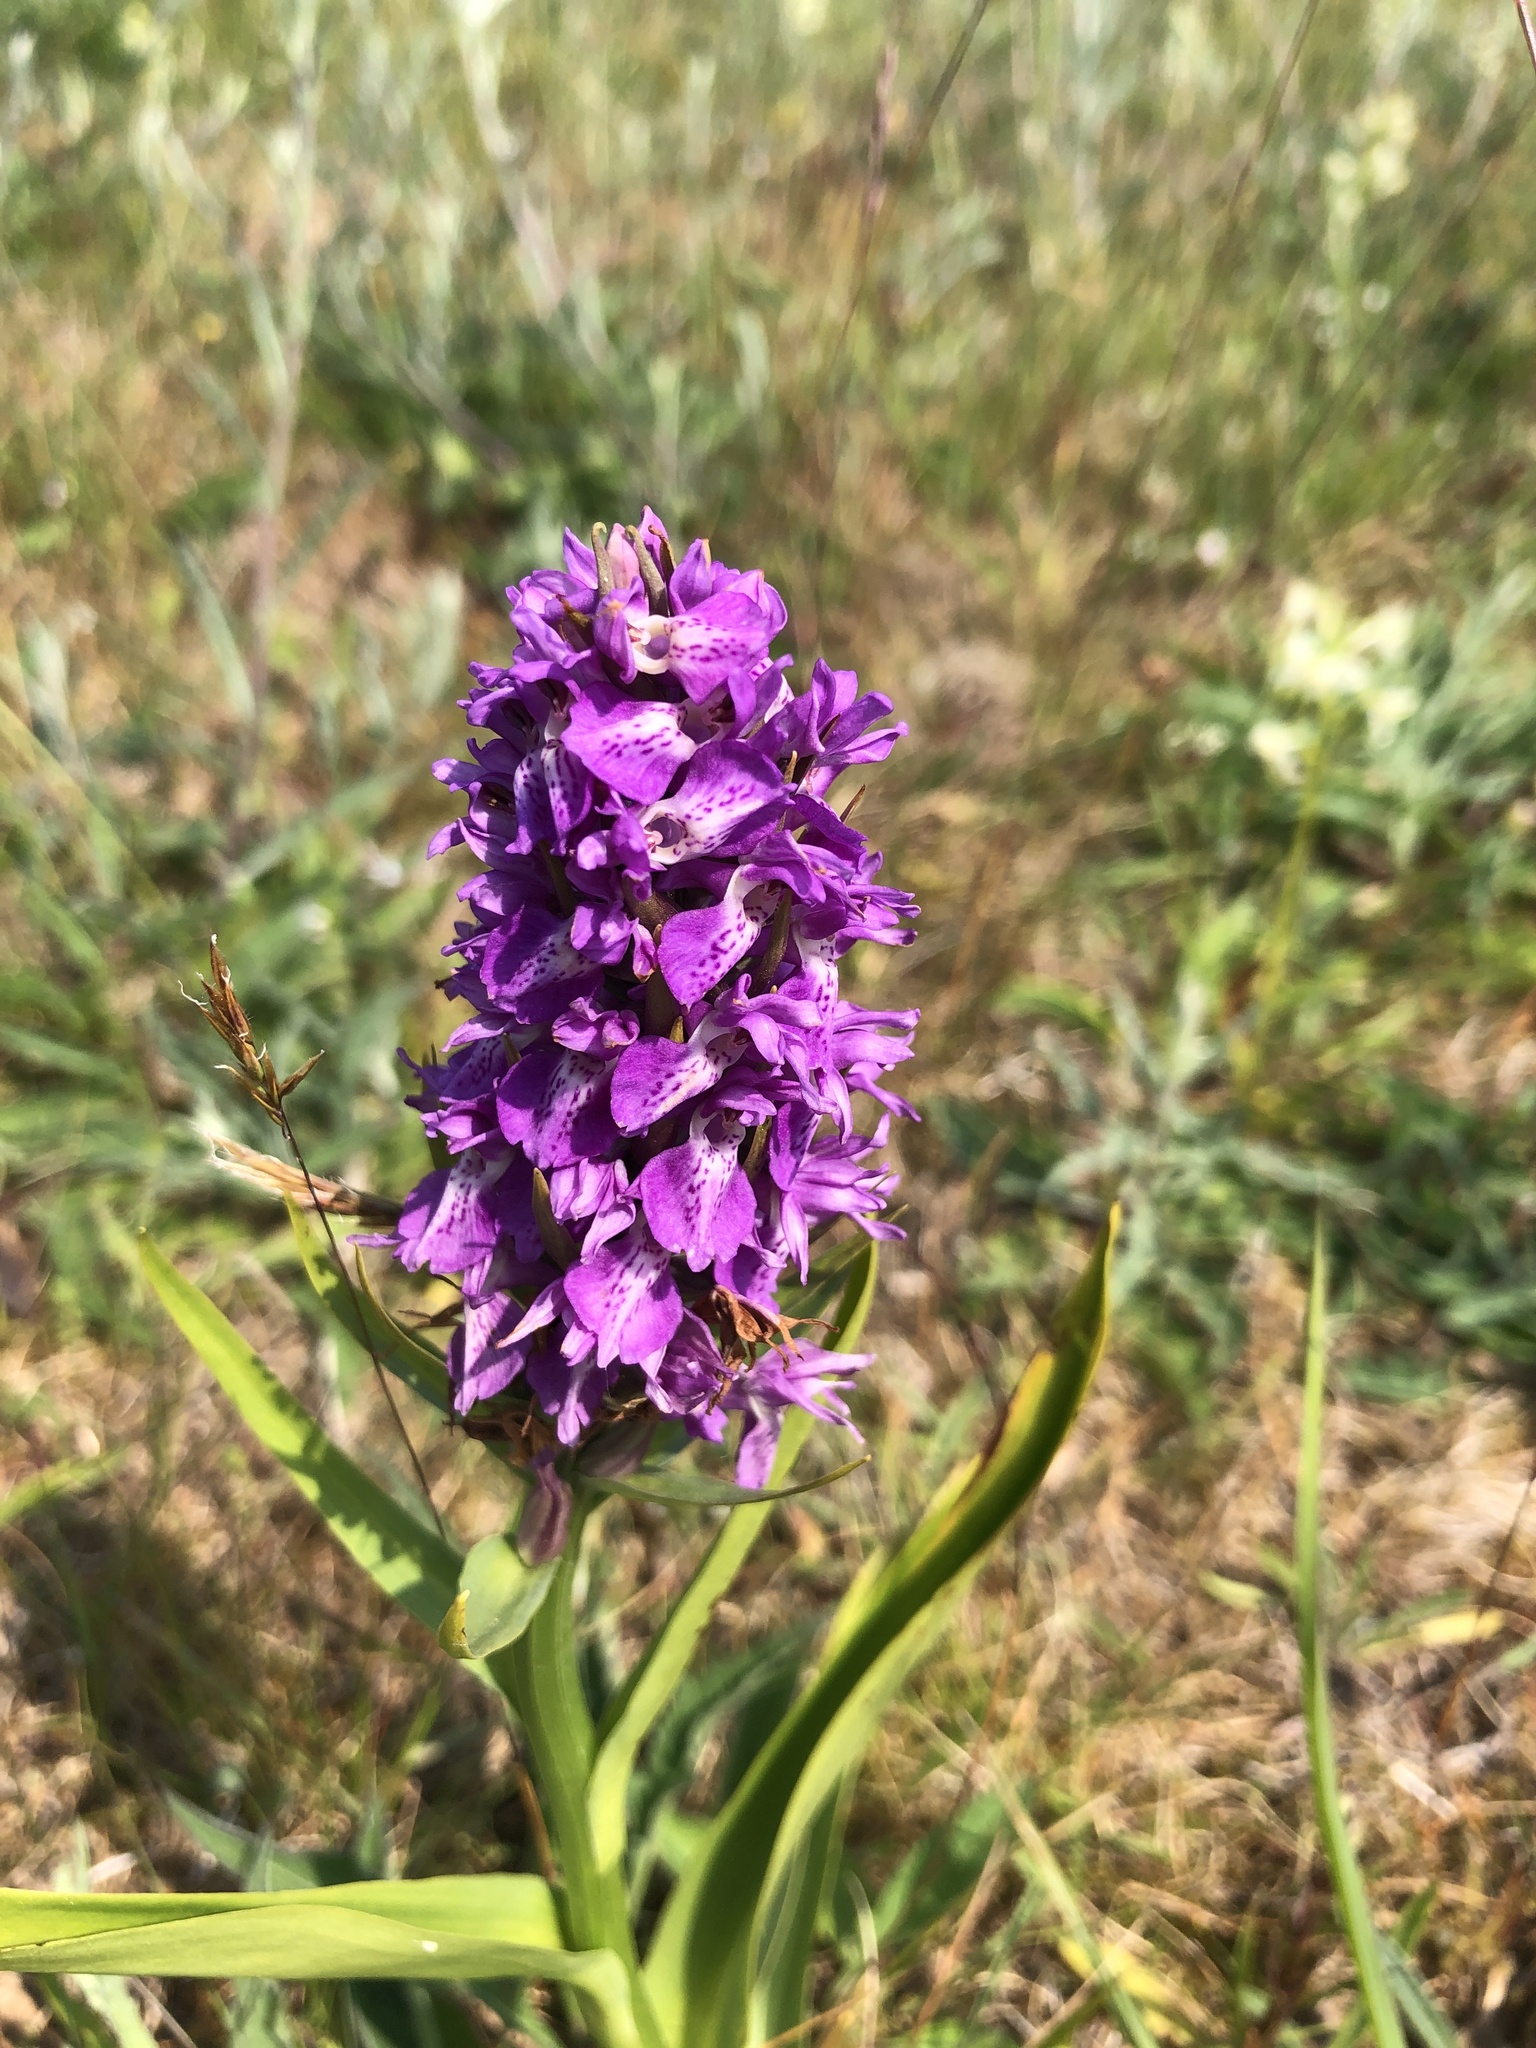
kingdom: Plantae
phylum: Tracheophyta
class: Liliopsida
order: Asparagales
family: Orchidaceae
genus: Dactylorhiza
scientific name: Dactylorhiza majalis
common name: Marsh orchid
